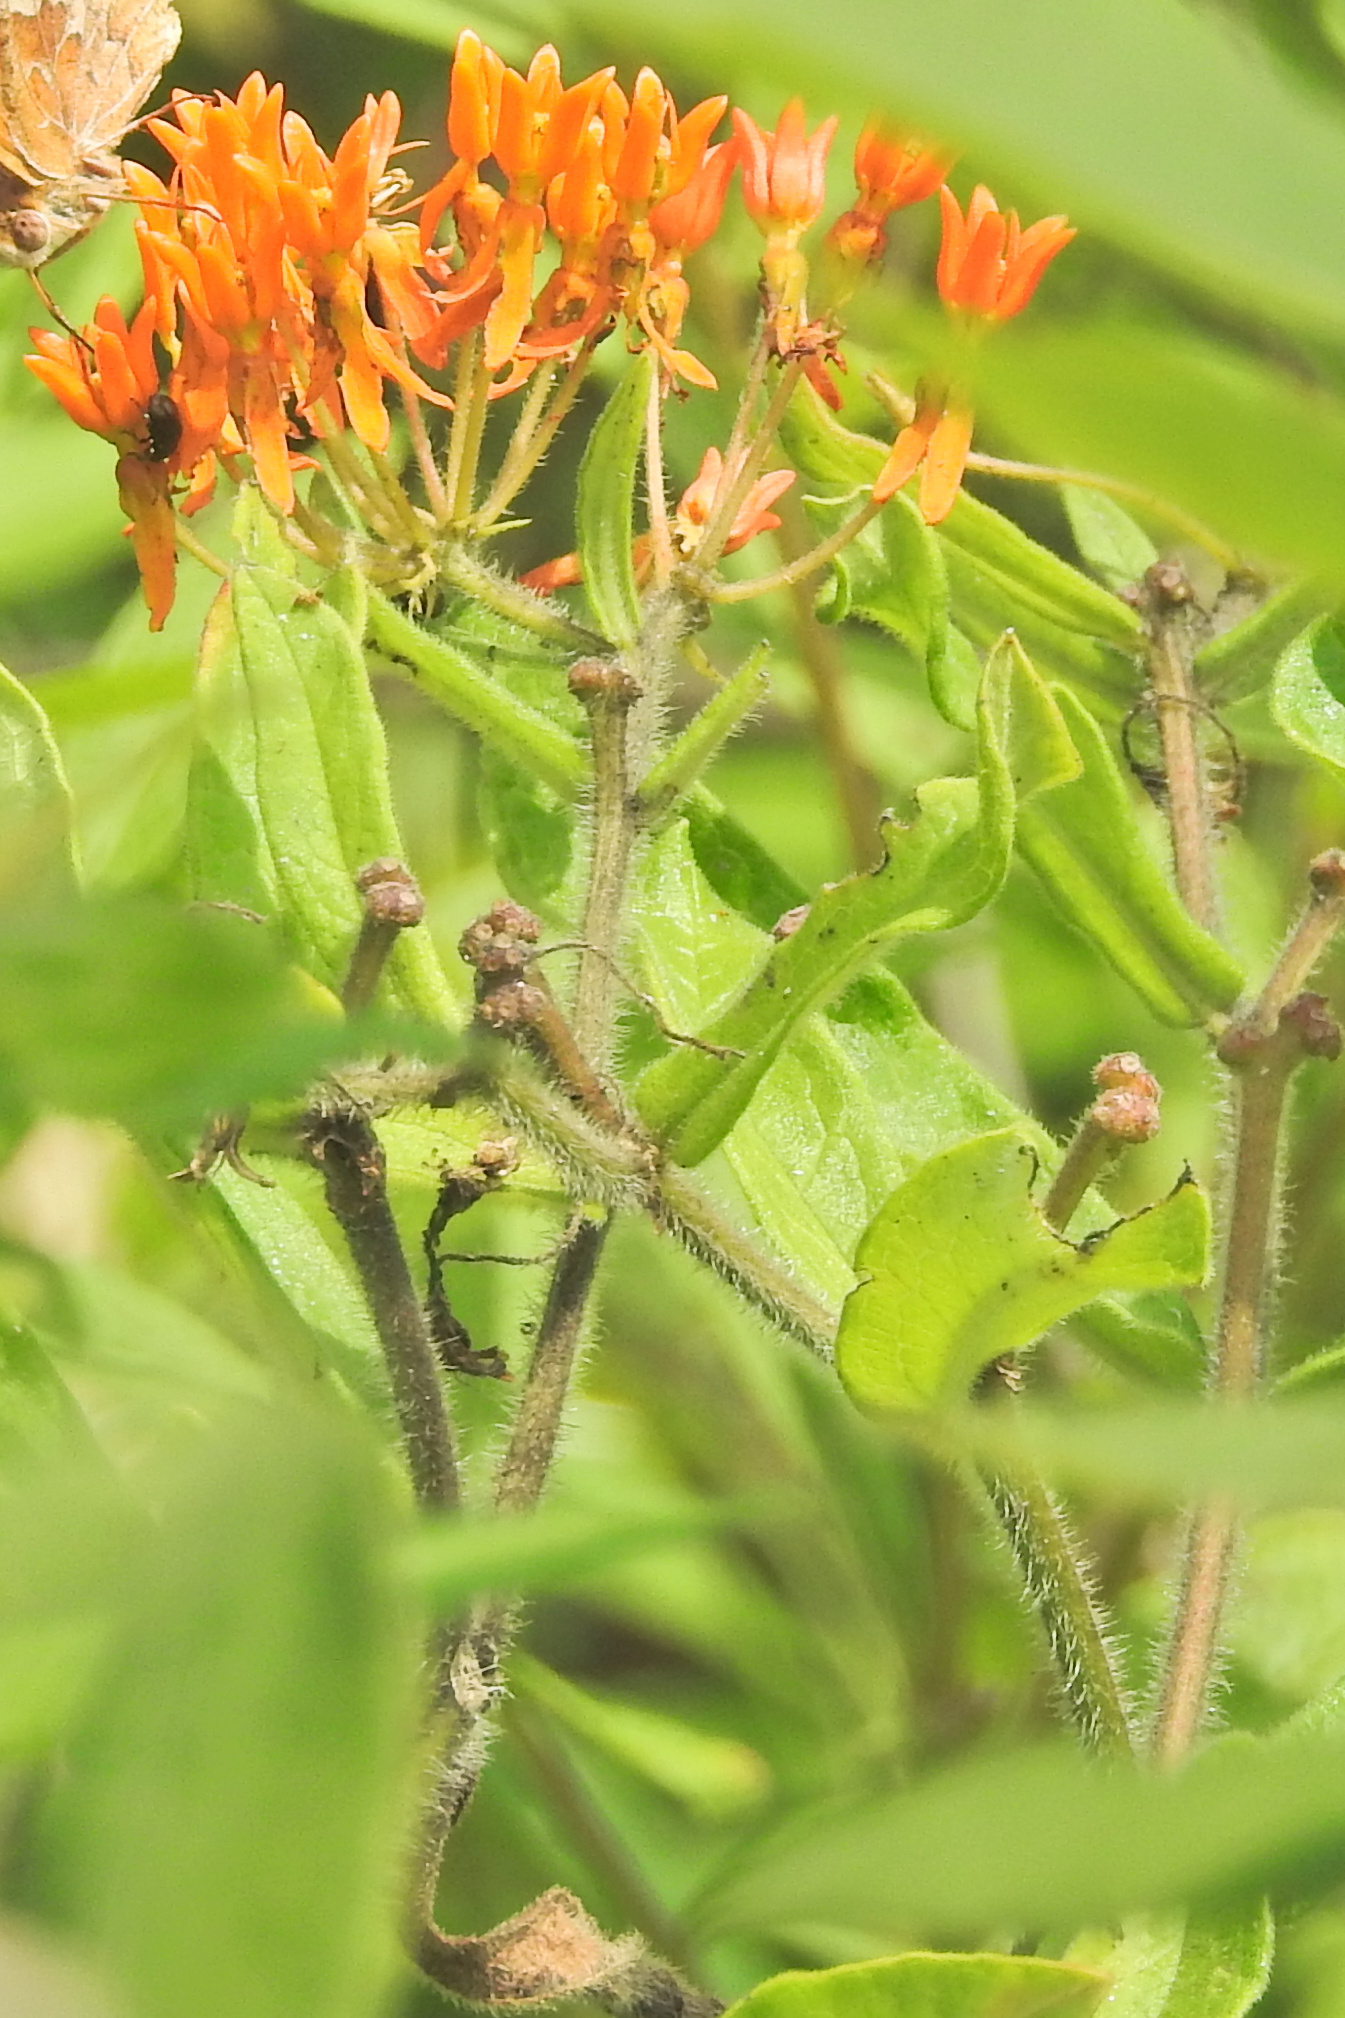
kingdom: Plantae
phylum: Tracheophyta
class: Magnoliopsida
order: Gentianales
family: Apocynaceae
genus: Asclepias
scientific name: Asclepias tuberosa
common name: Butterfly milkweed
